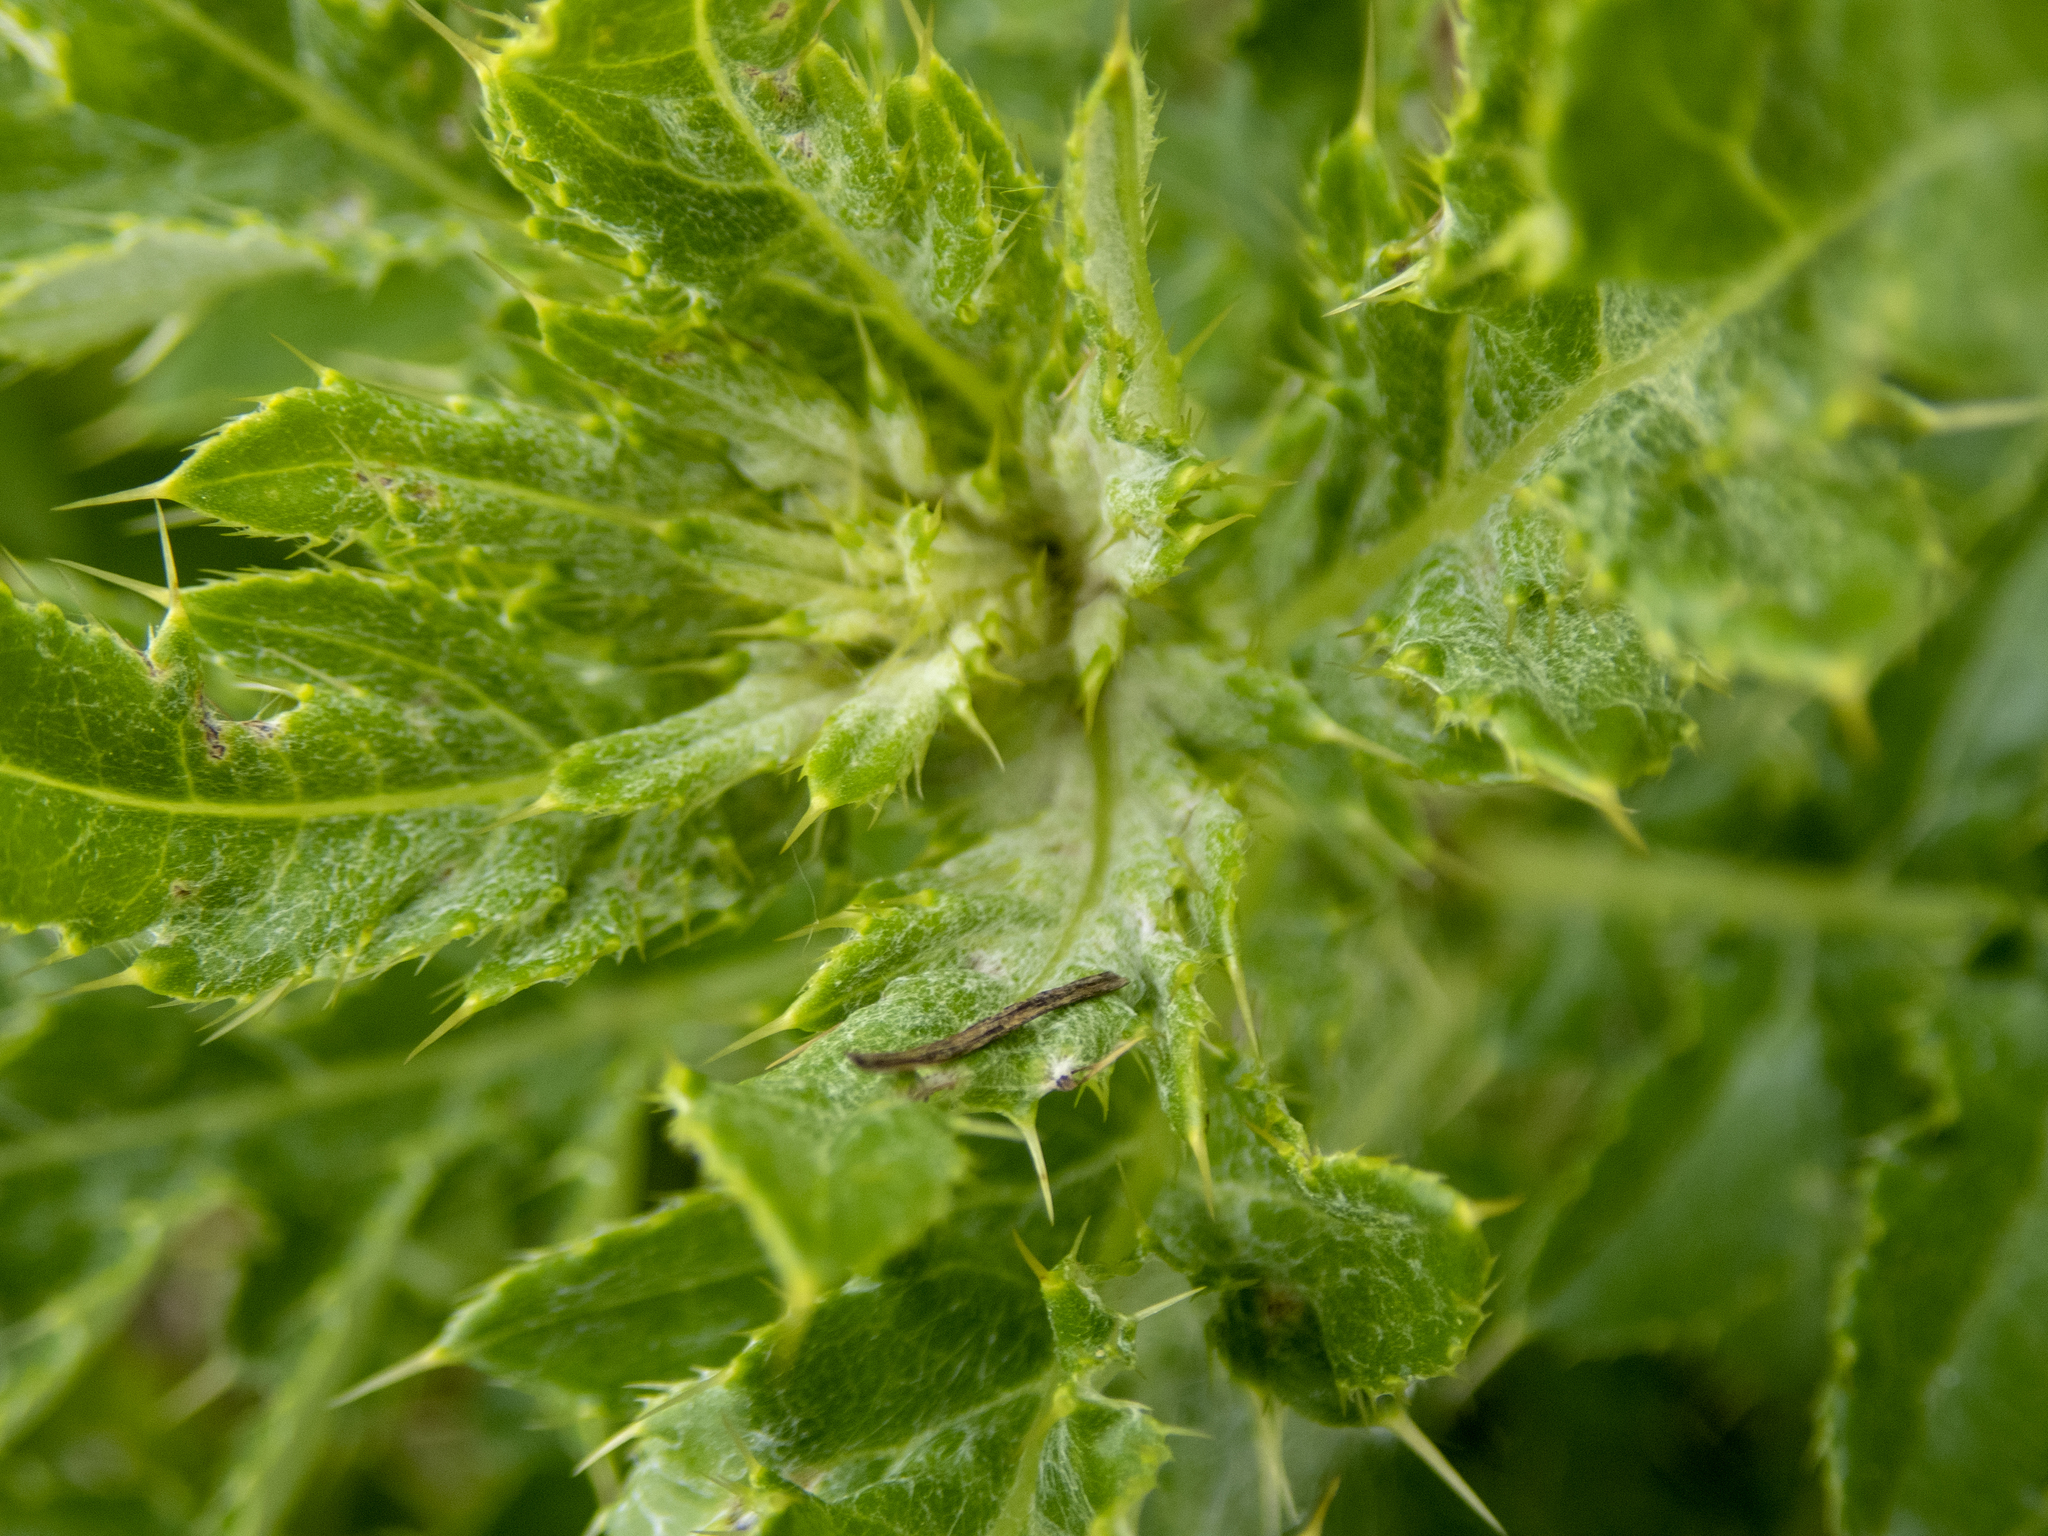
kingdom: Plantae
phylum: Tracheophyta
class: Magnoliopsida
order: Asterales
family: Asteraceae
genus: Cirsium
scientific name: Cirsium arvense
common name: Creeping thistle
